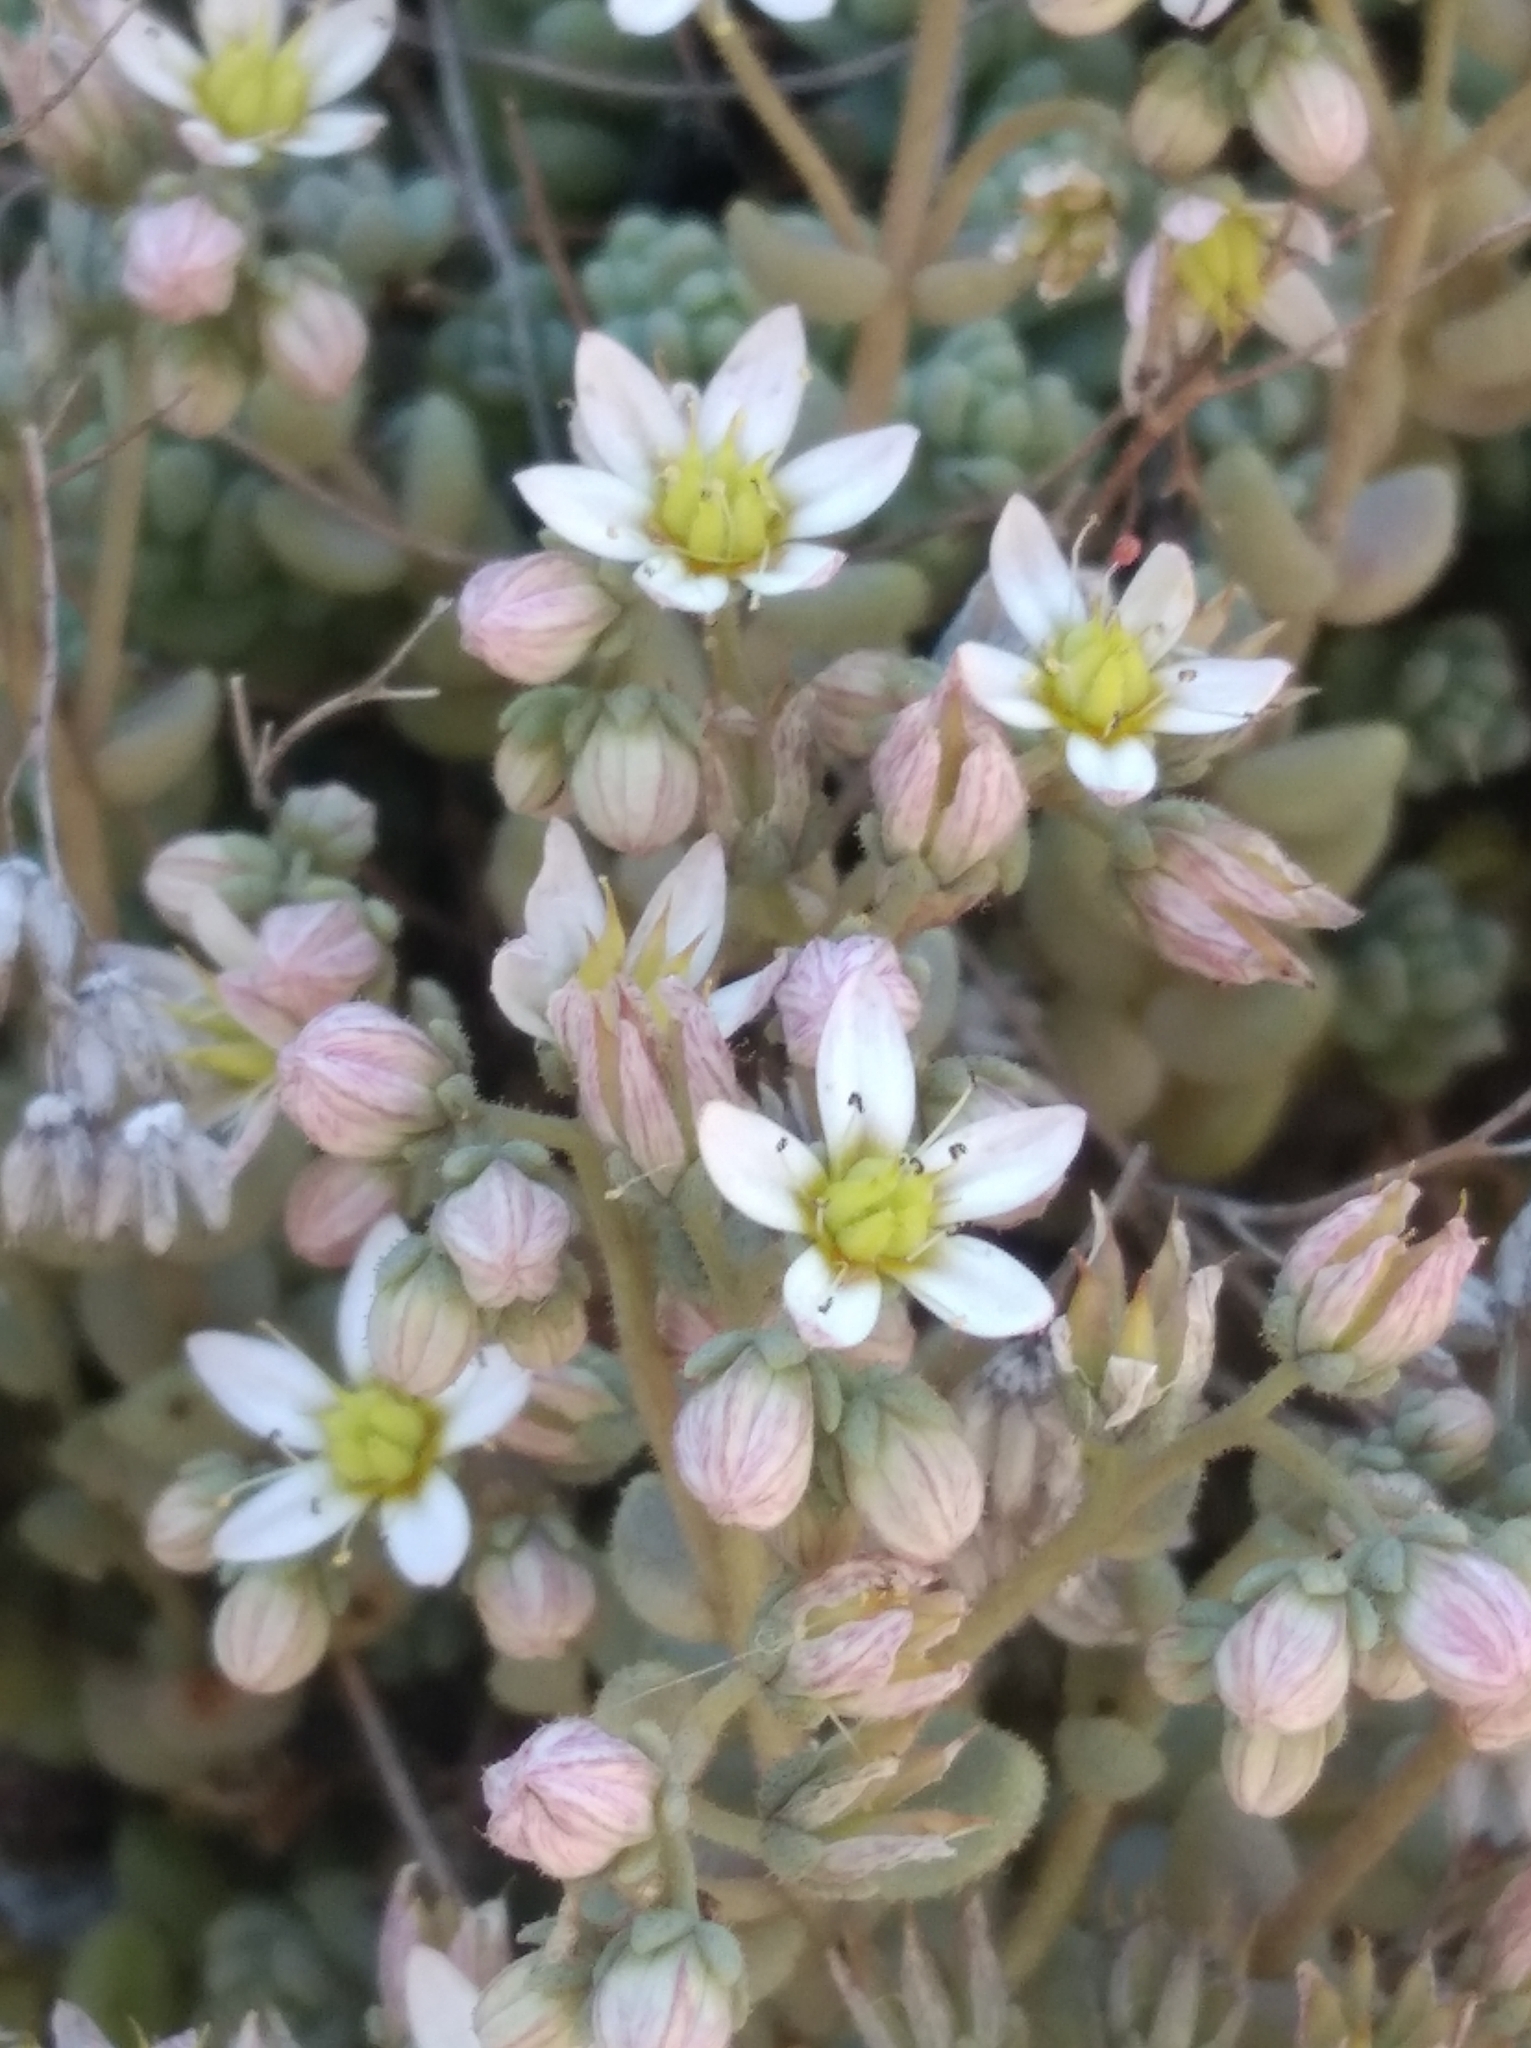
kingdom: Plantae
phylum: Tracheophyta
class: Magnoliopsida
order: Saxifragales
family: Crassulaceae
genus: Sedum
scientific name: Sedum dasyphyllum
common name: Thick-leaf stonecrop
